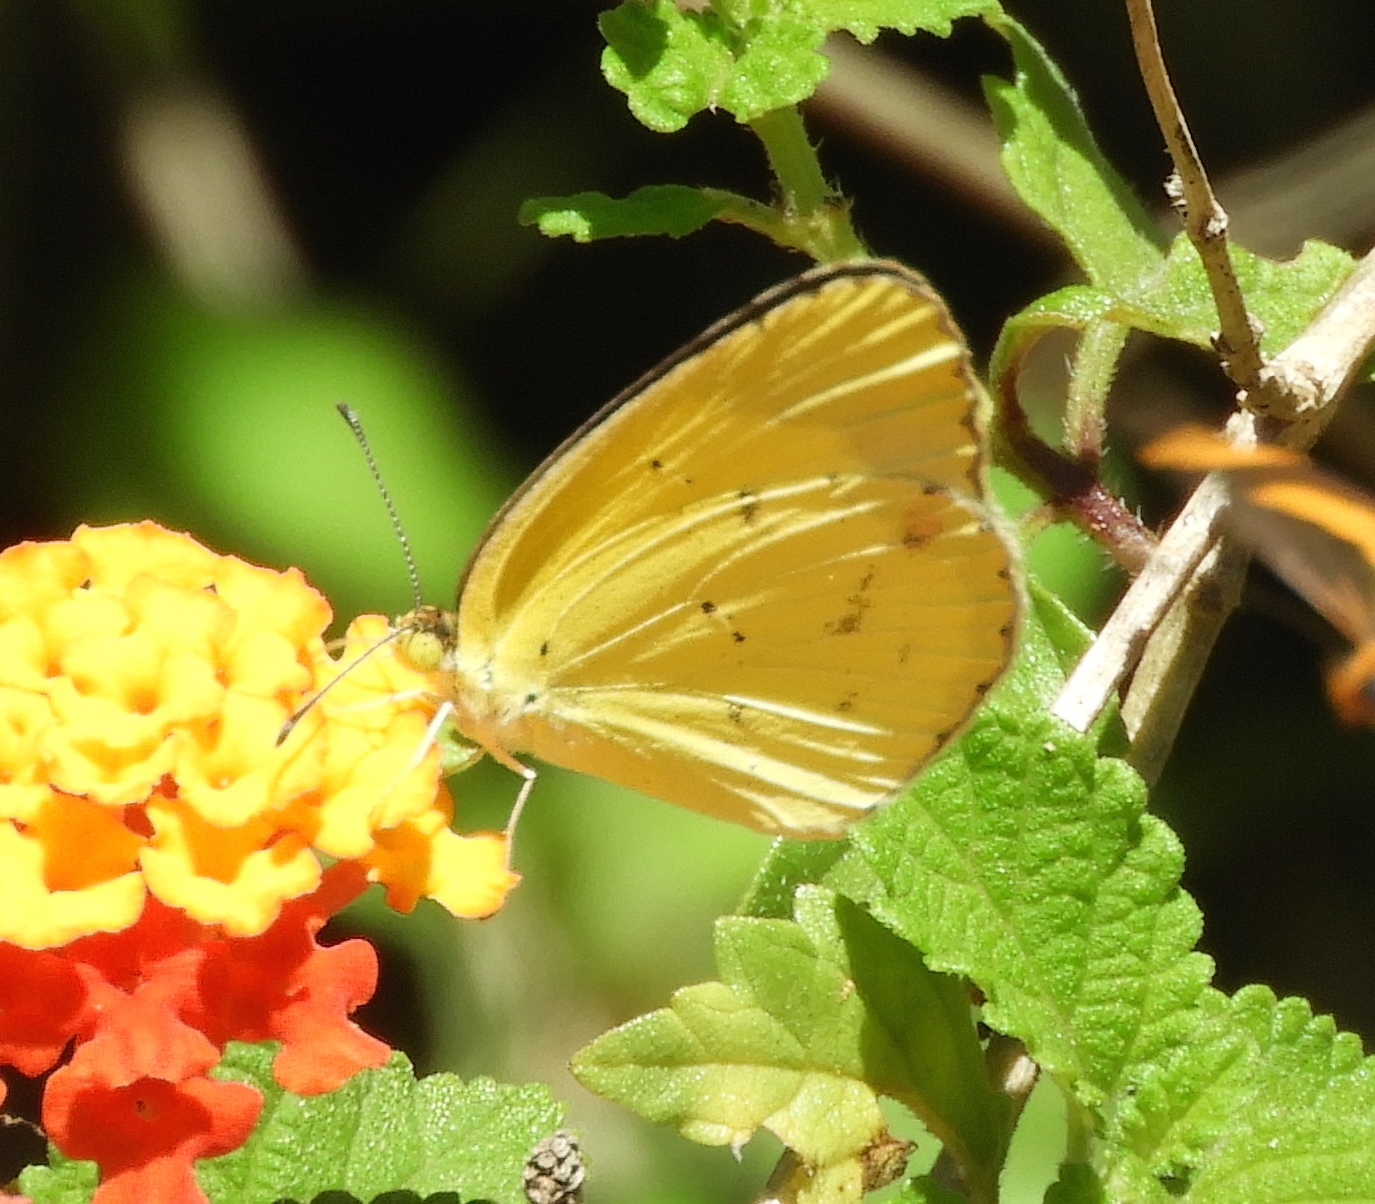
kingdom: Animalia
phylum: Arthropoda
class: Insecta
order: Lepidoptera
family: Pieridae
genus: Pyrisitia
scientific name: Pyrisitia lisa
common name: Little yellow
